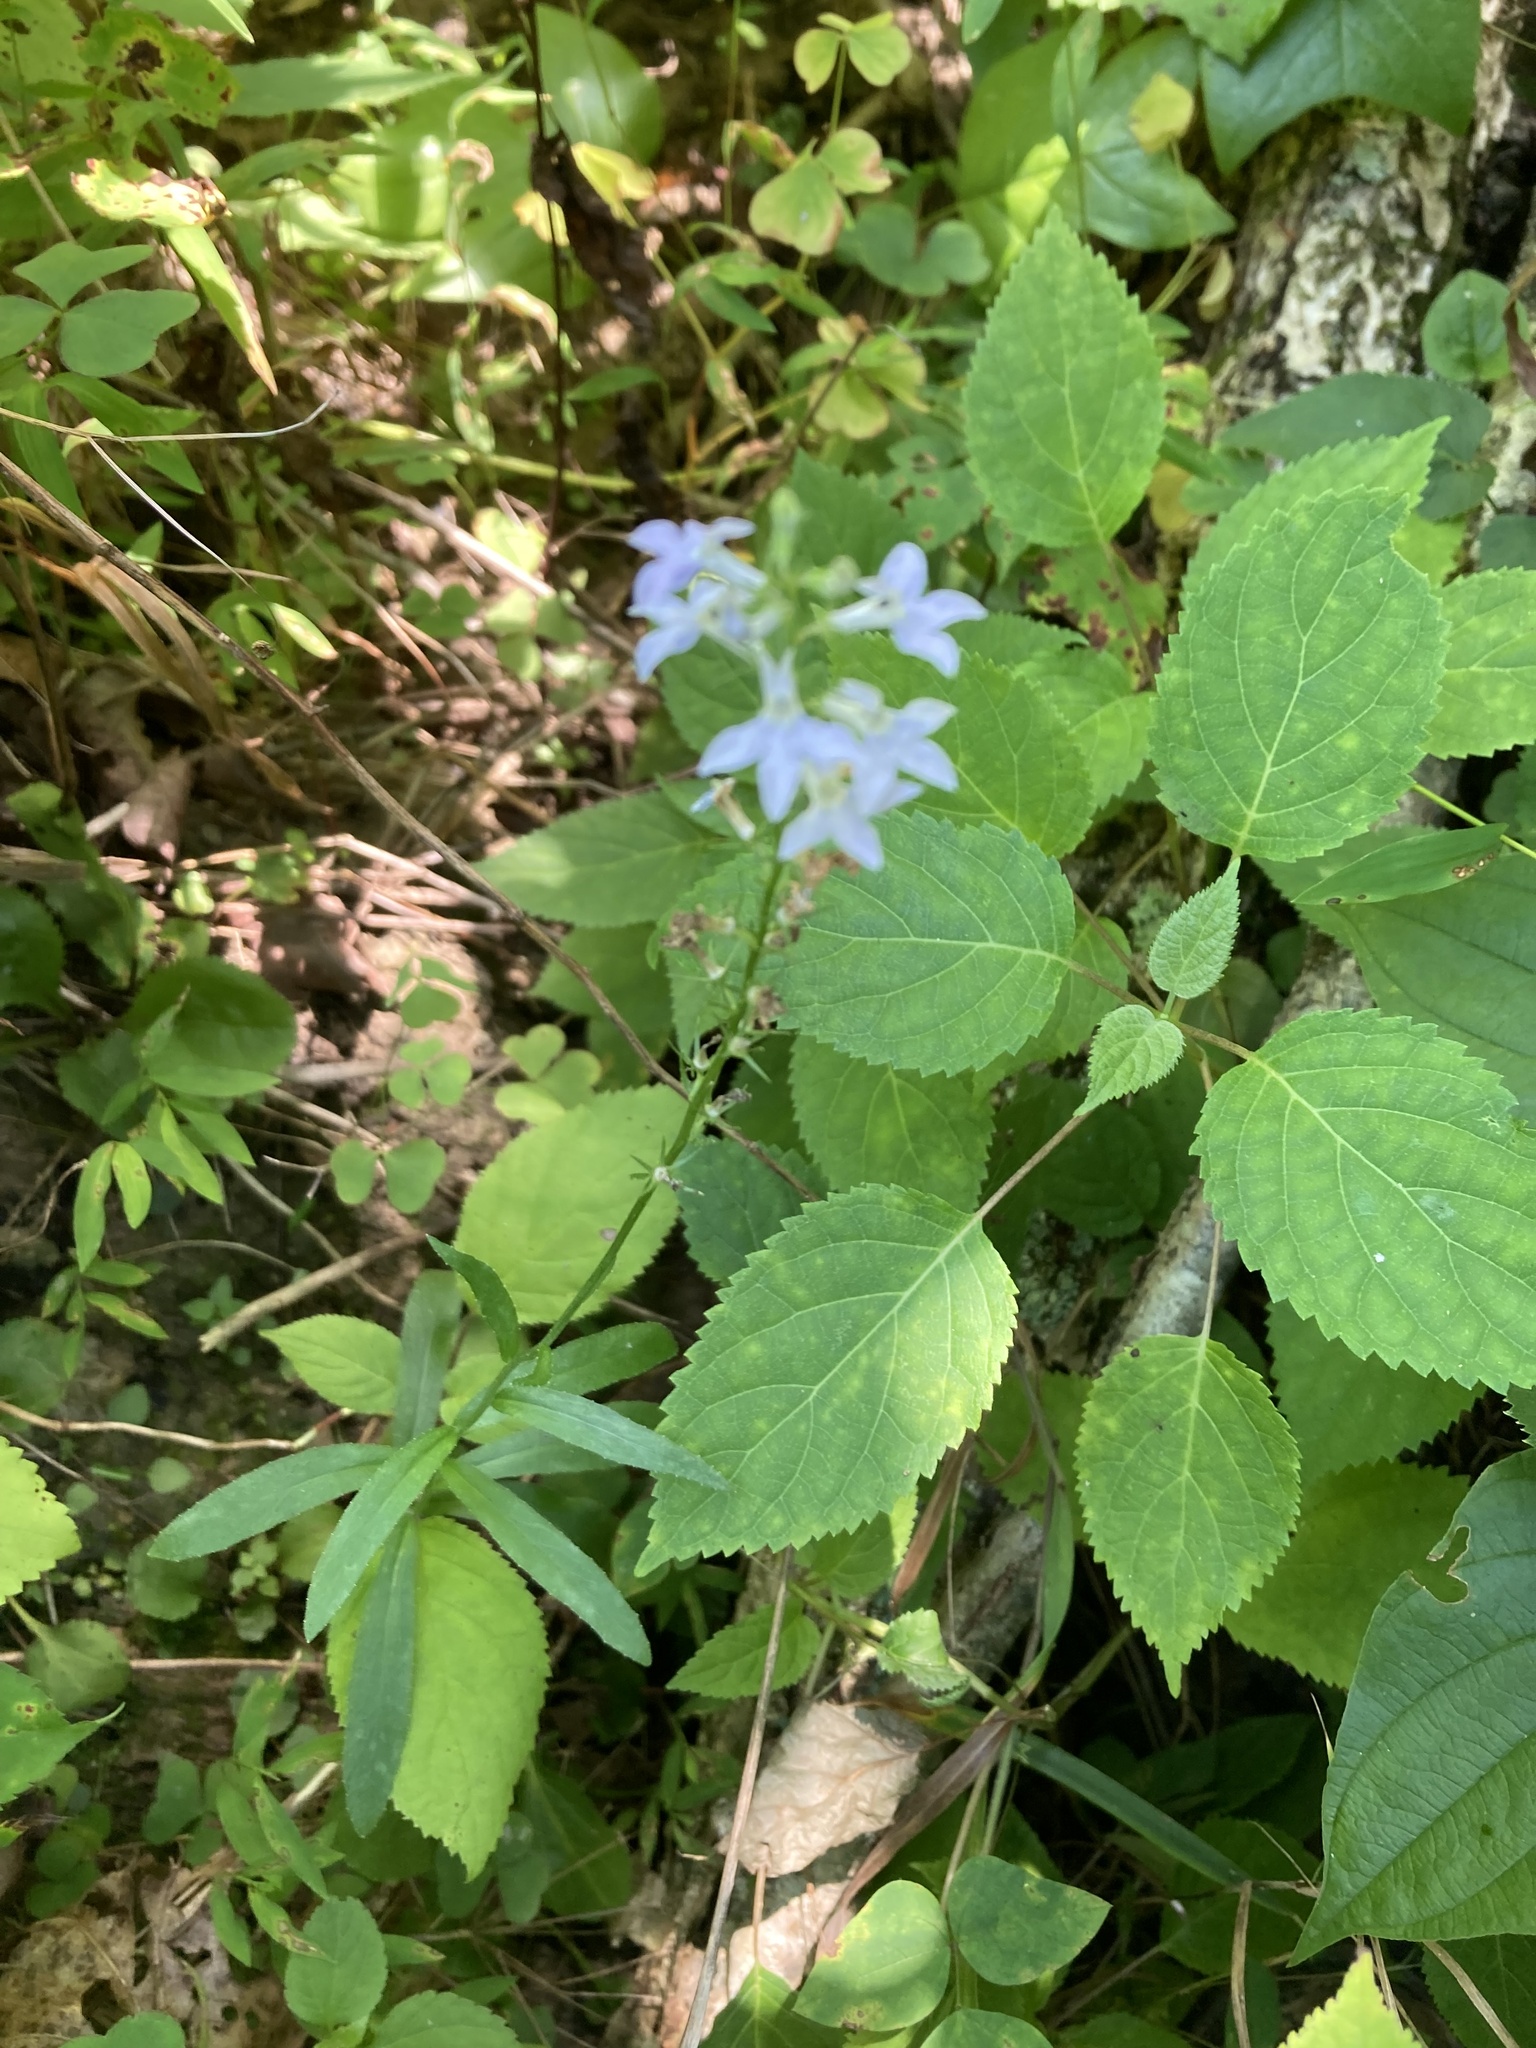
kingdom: Plantae
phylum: Tracheophyta
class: Magnoliopsida
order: Asterales
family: Campanulaceae
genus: Lobelia
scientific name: Lobelia spicata
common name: Pale-spike lobelia
